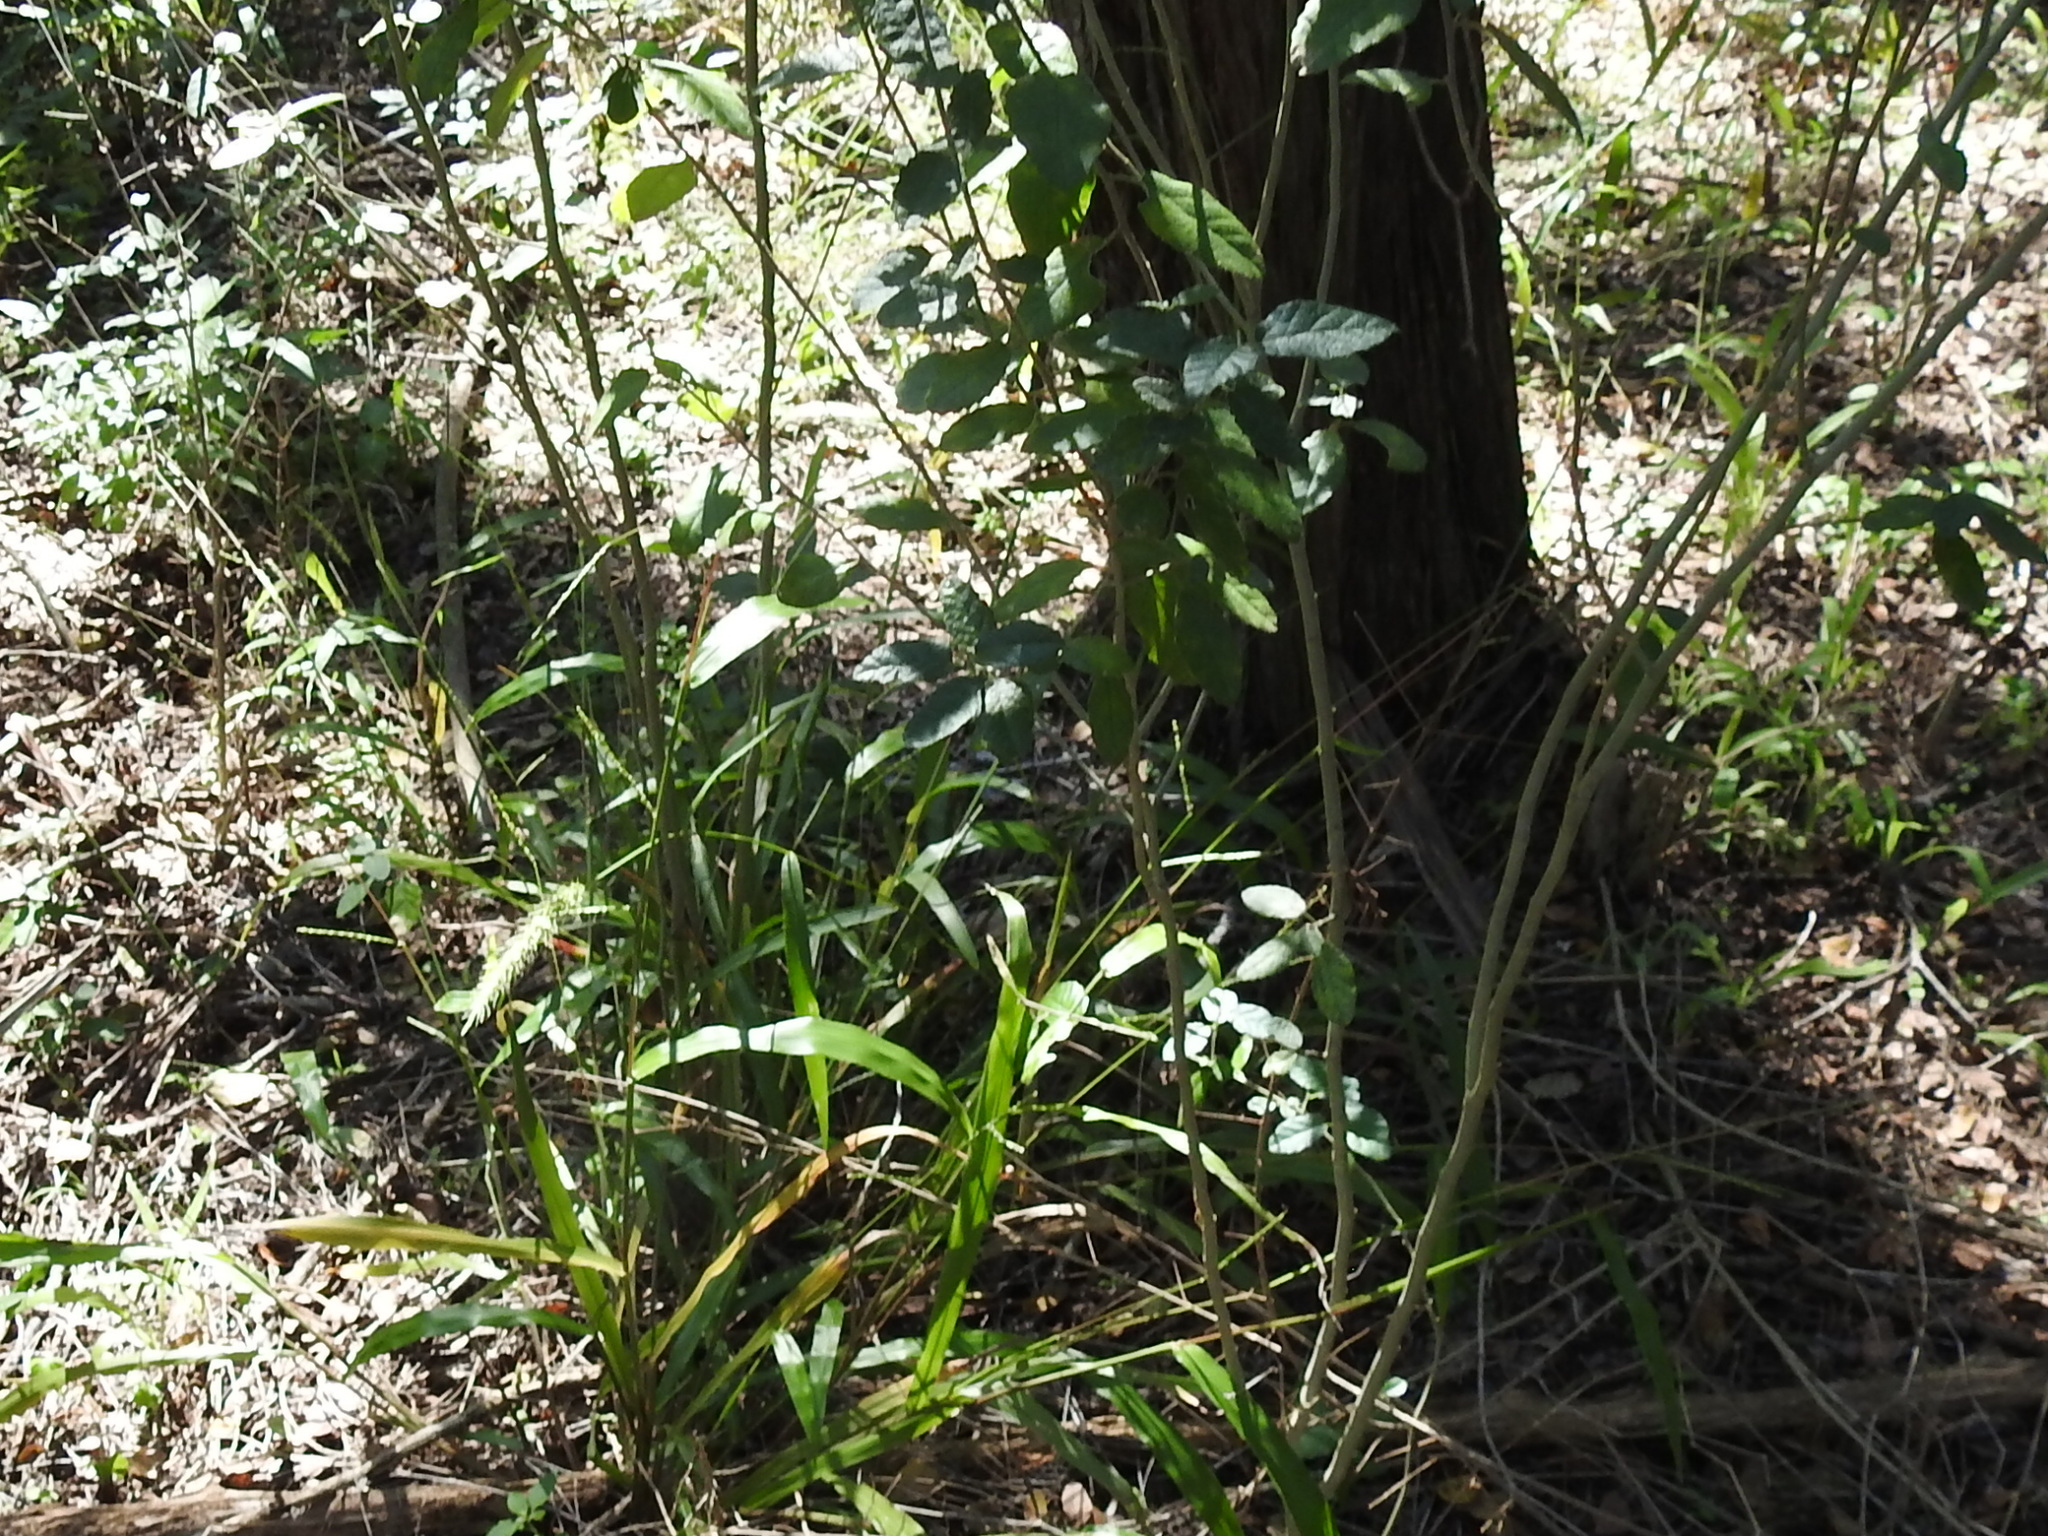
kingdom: Plantae
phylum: Tracheophyta
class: Liliopsida
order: Poales
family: Poaceae
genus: Setaria
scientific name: Setaria scheelei
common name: Southwestern bristle grass
